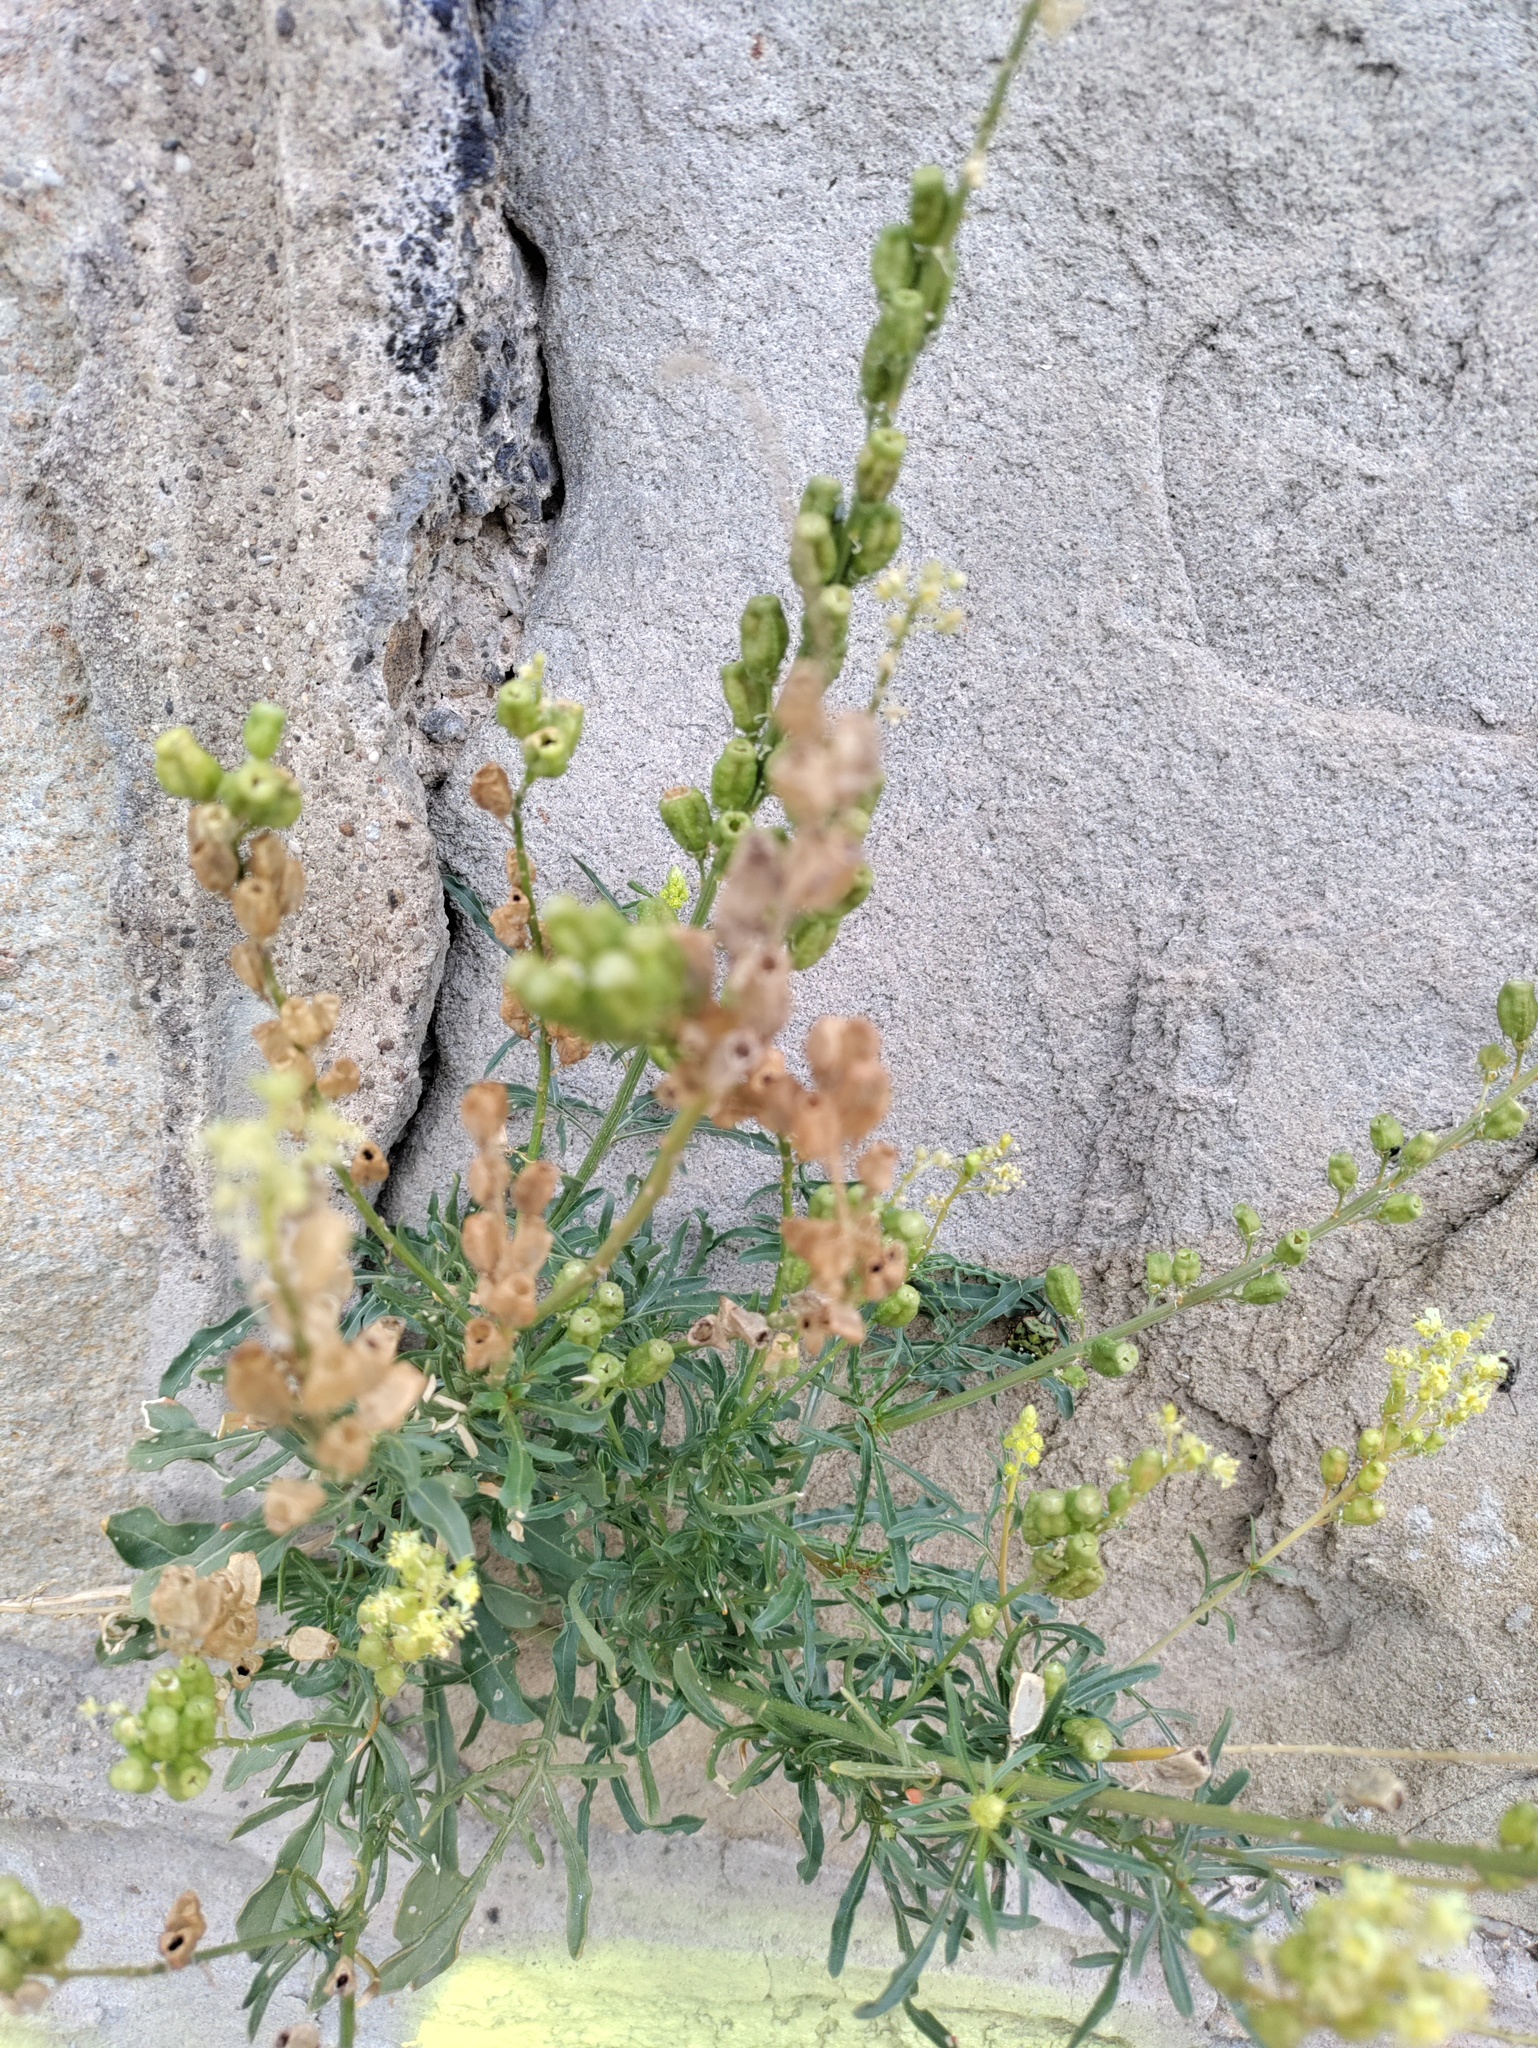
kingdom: Plantae
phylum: Tracheophyta
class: Magnoliopsida
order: Brassicales
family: Resedaceae
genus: Reseda
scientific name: Reseda lutea
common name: Wild mignonette
